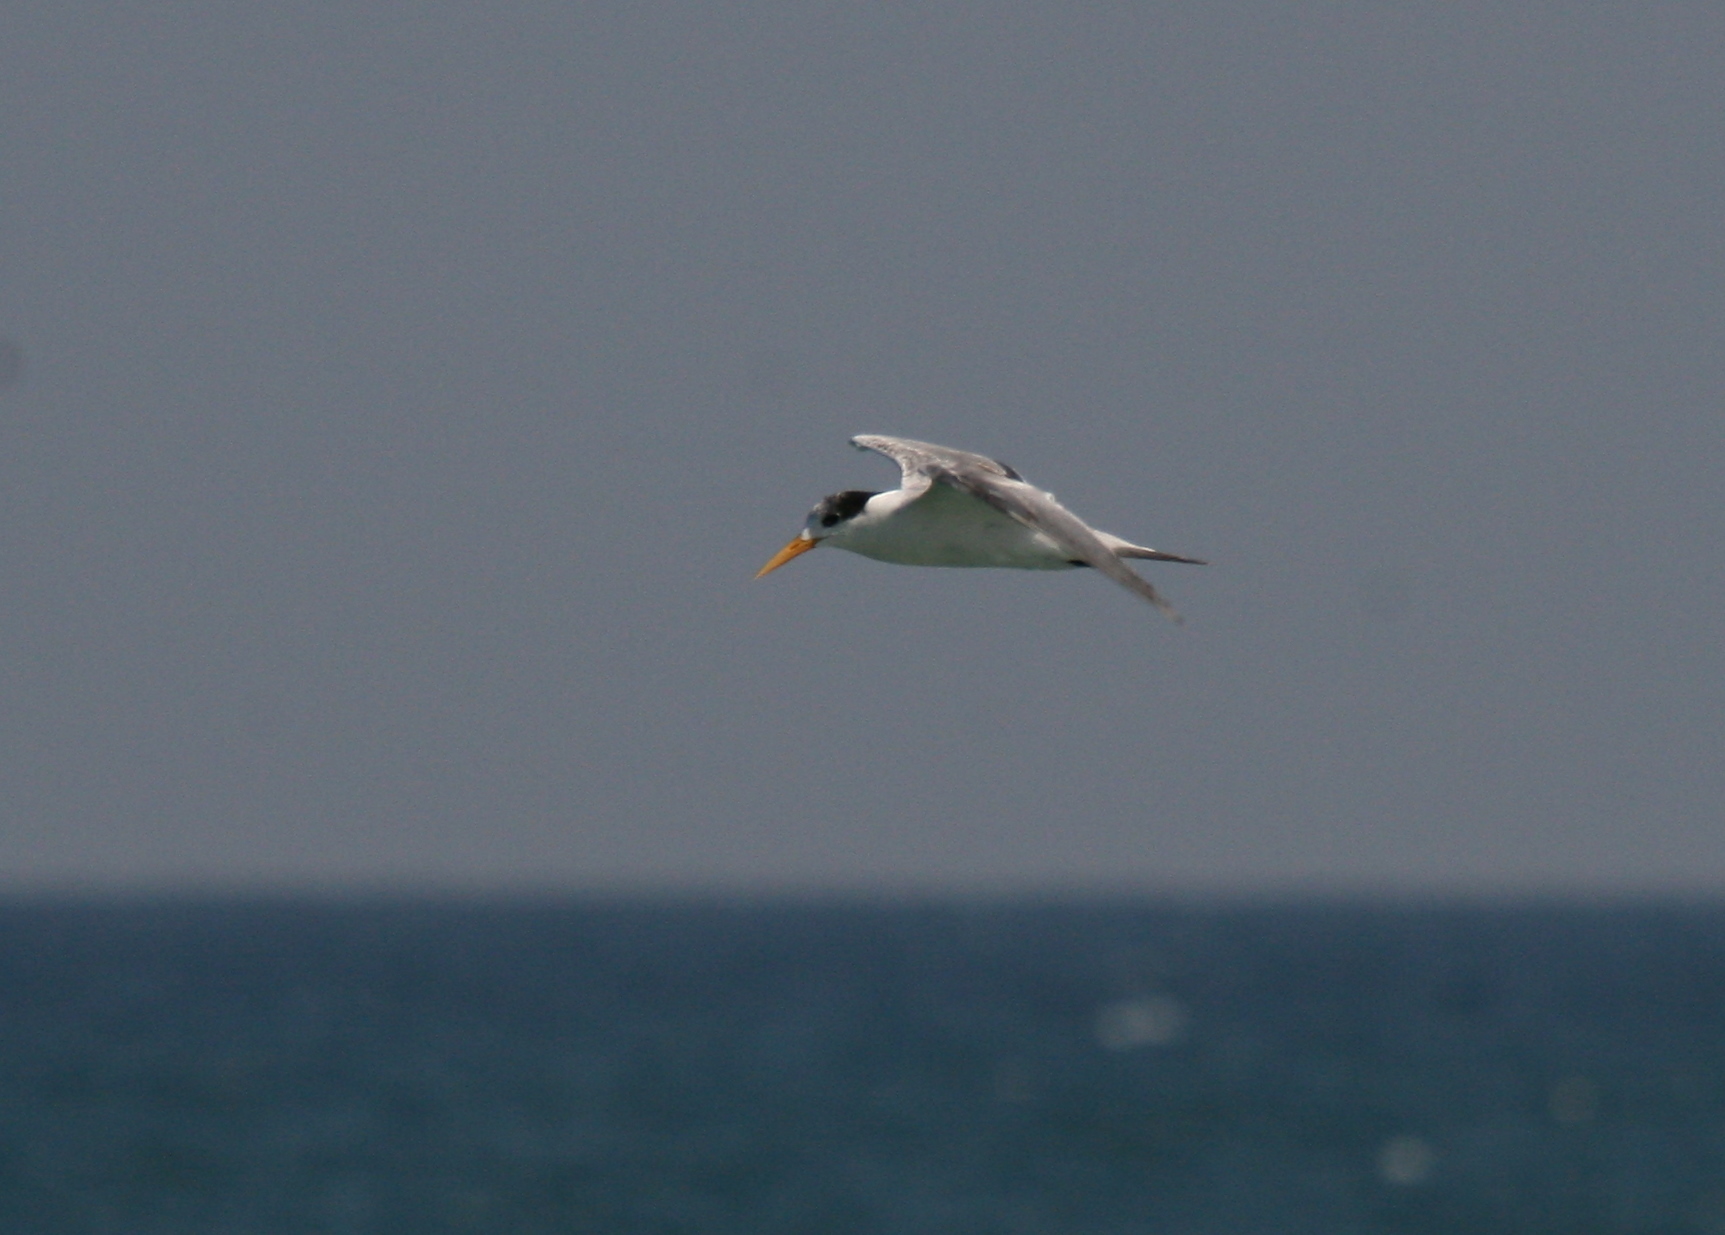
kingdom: Animalia
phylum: Chordata
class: Aves
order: Charadriiformes
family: Laridae
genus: Thalasseus
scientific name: Thalasseus bengalensis
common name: Lesser crested tern
